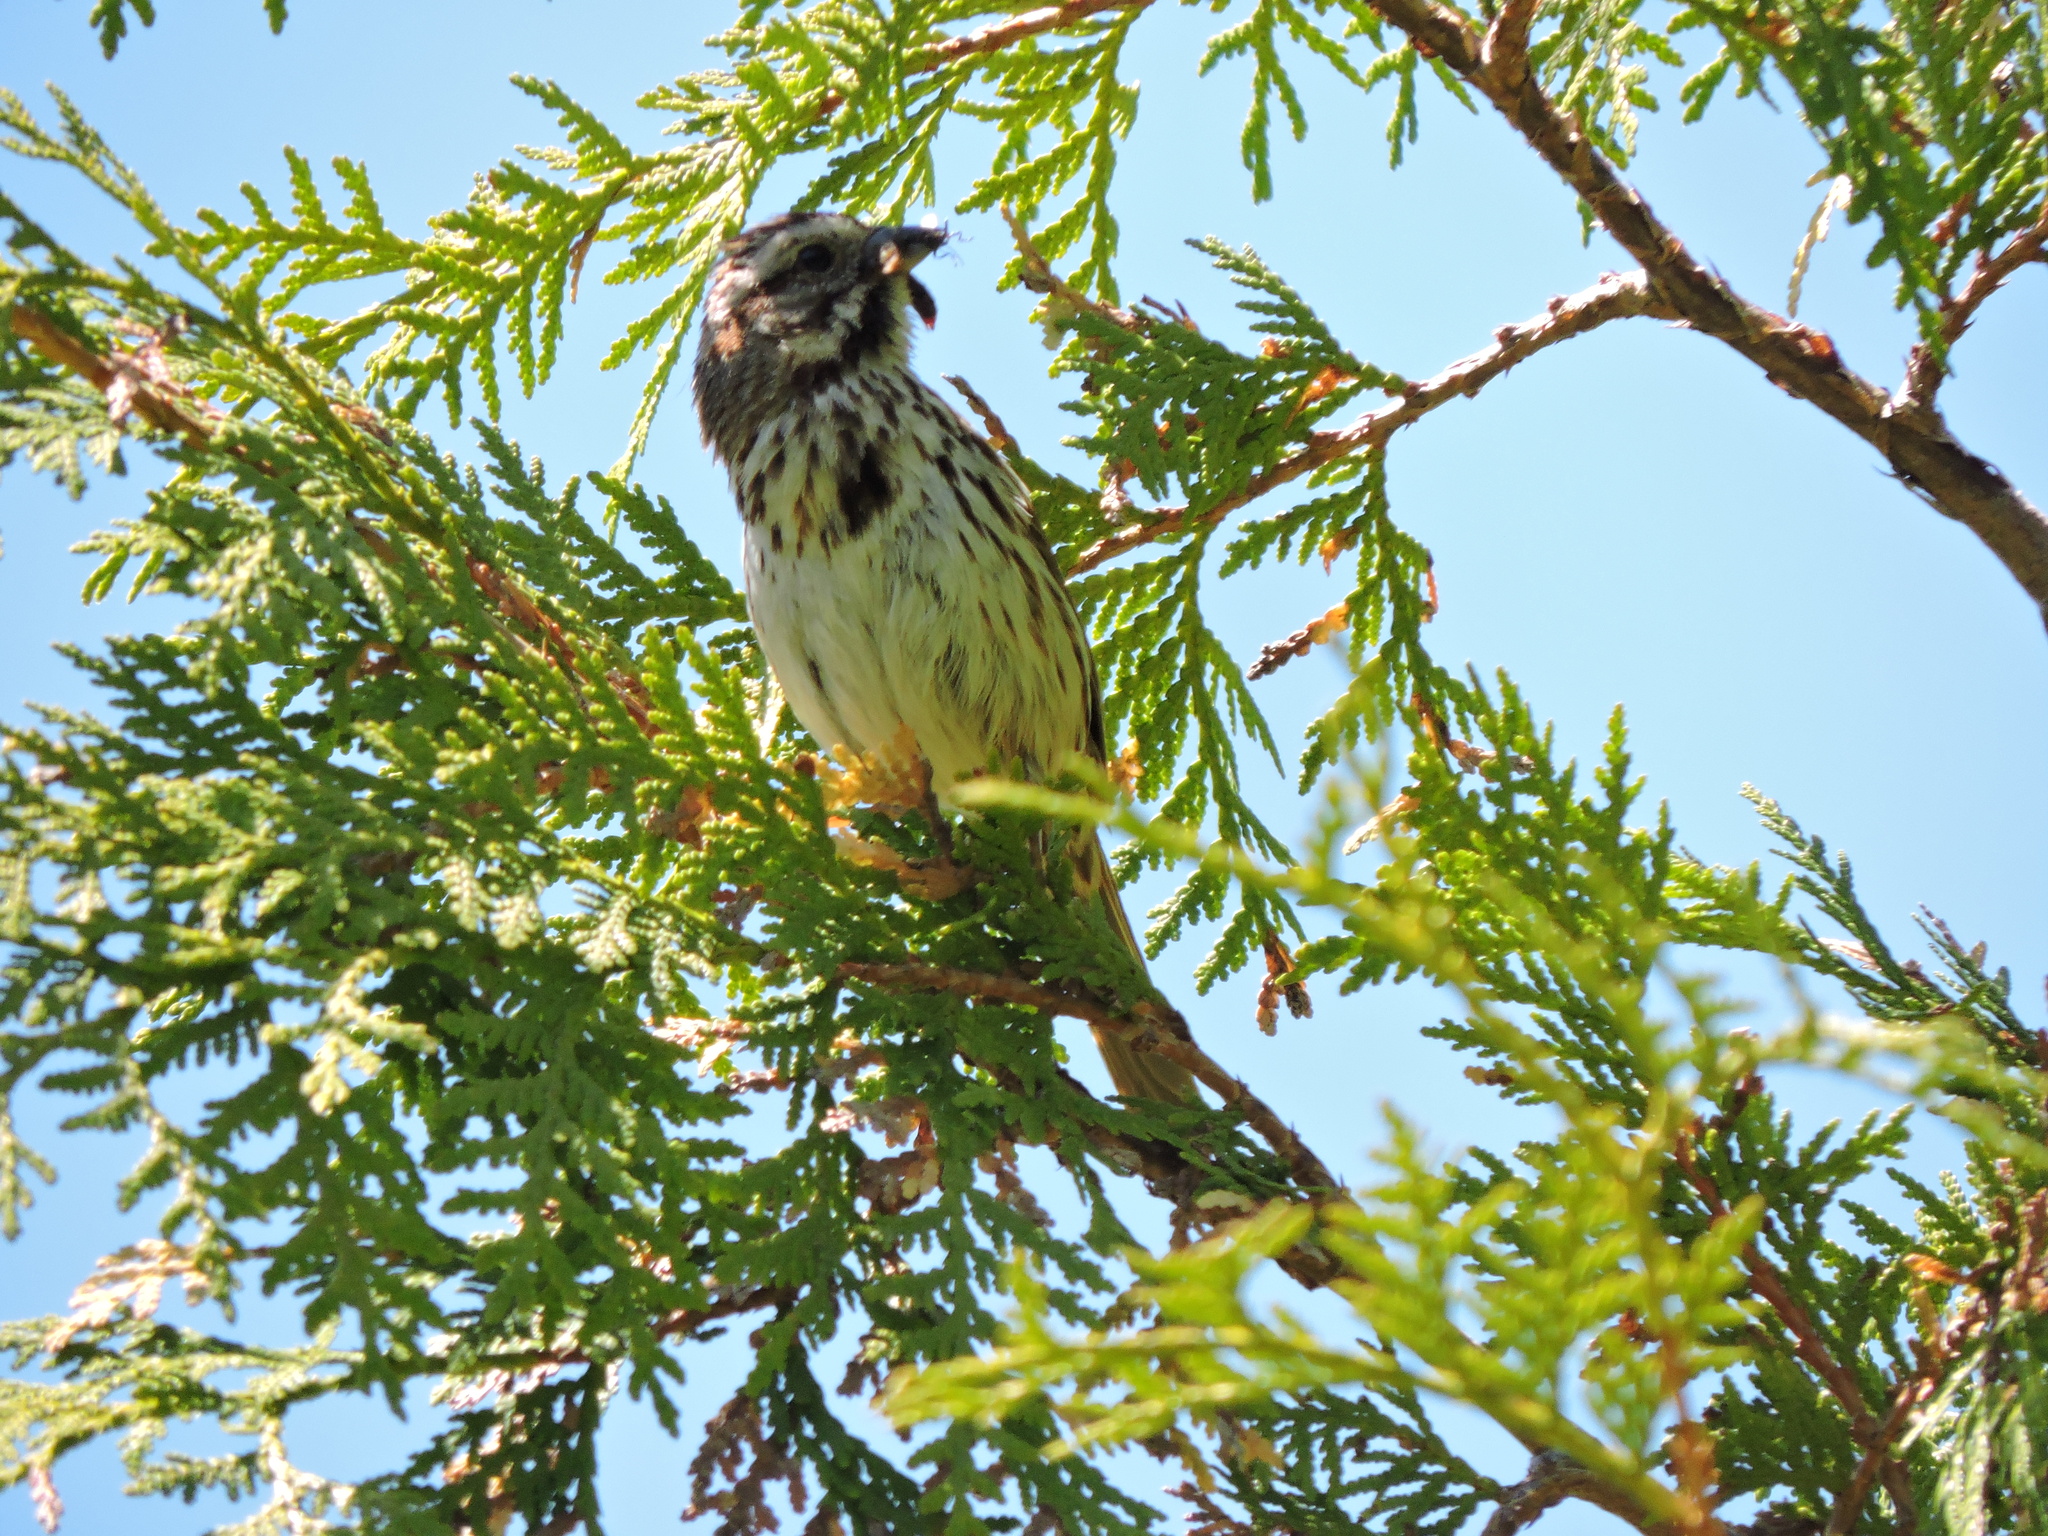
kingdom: Animalia
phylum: Chordata
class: Aves
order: Passeriformes
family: Passerellidae
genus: Melospiza
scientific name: Melospiza melodia
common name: Song sparrow
